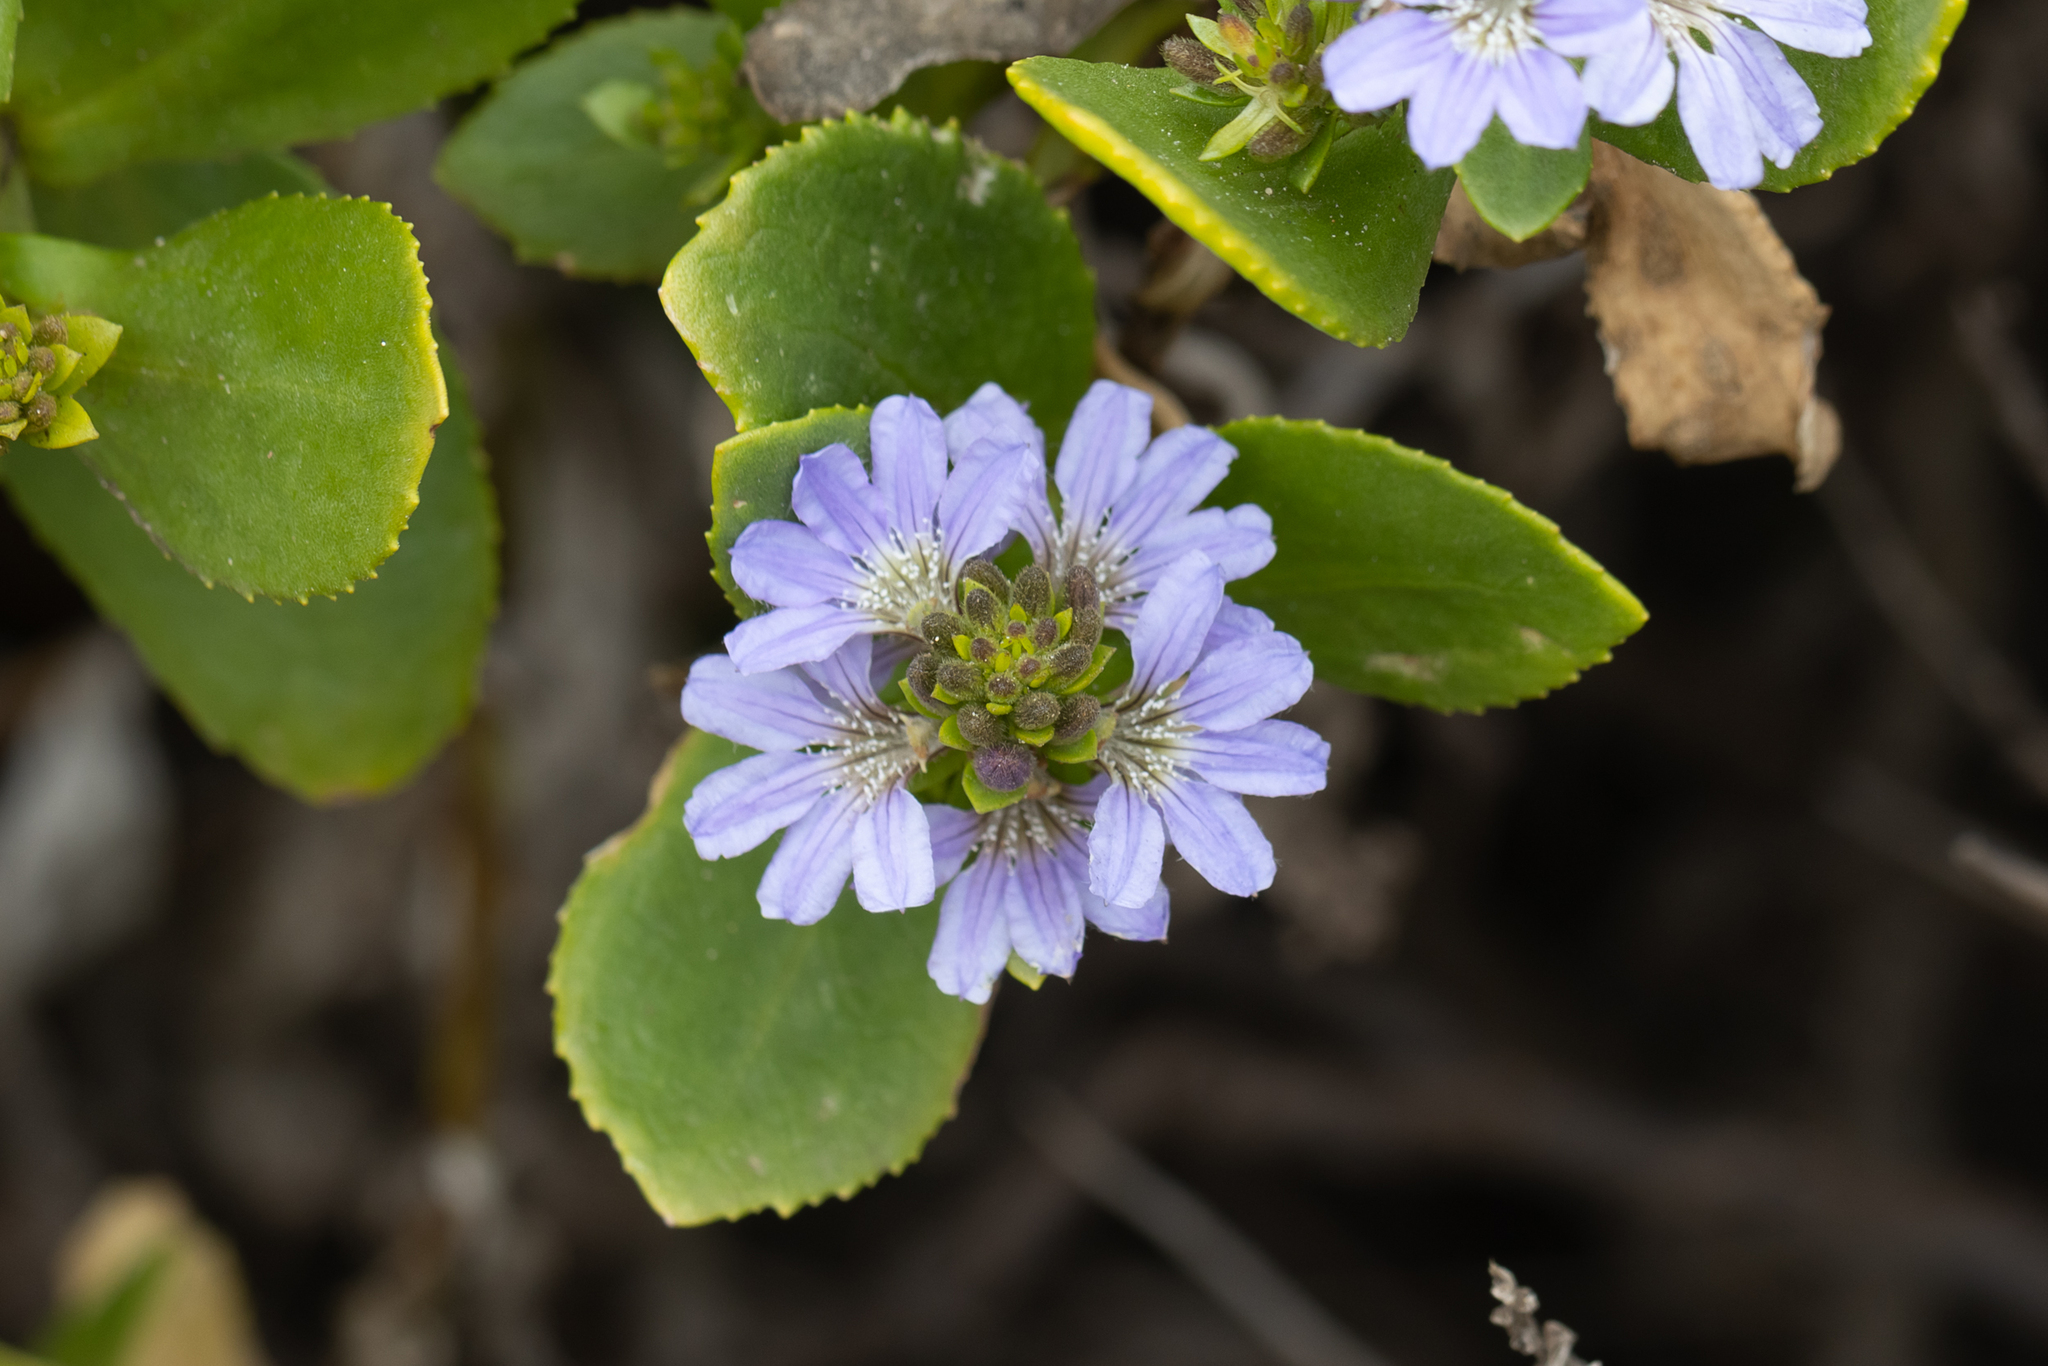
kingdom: Plantae
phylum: Tracheophyta
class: Magnoliopsida
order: Asterales
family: Goodeniaceae
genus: Scaevola
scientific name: Scaevola crassifolia
